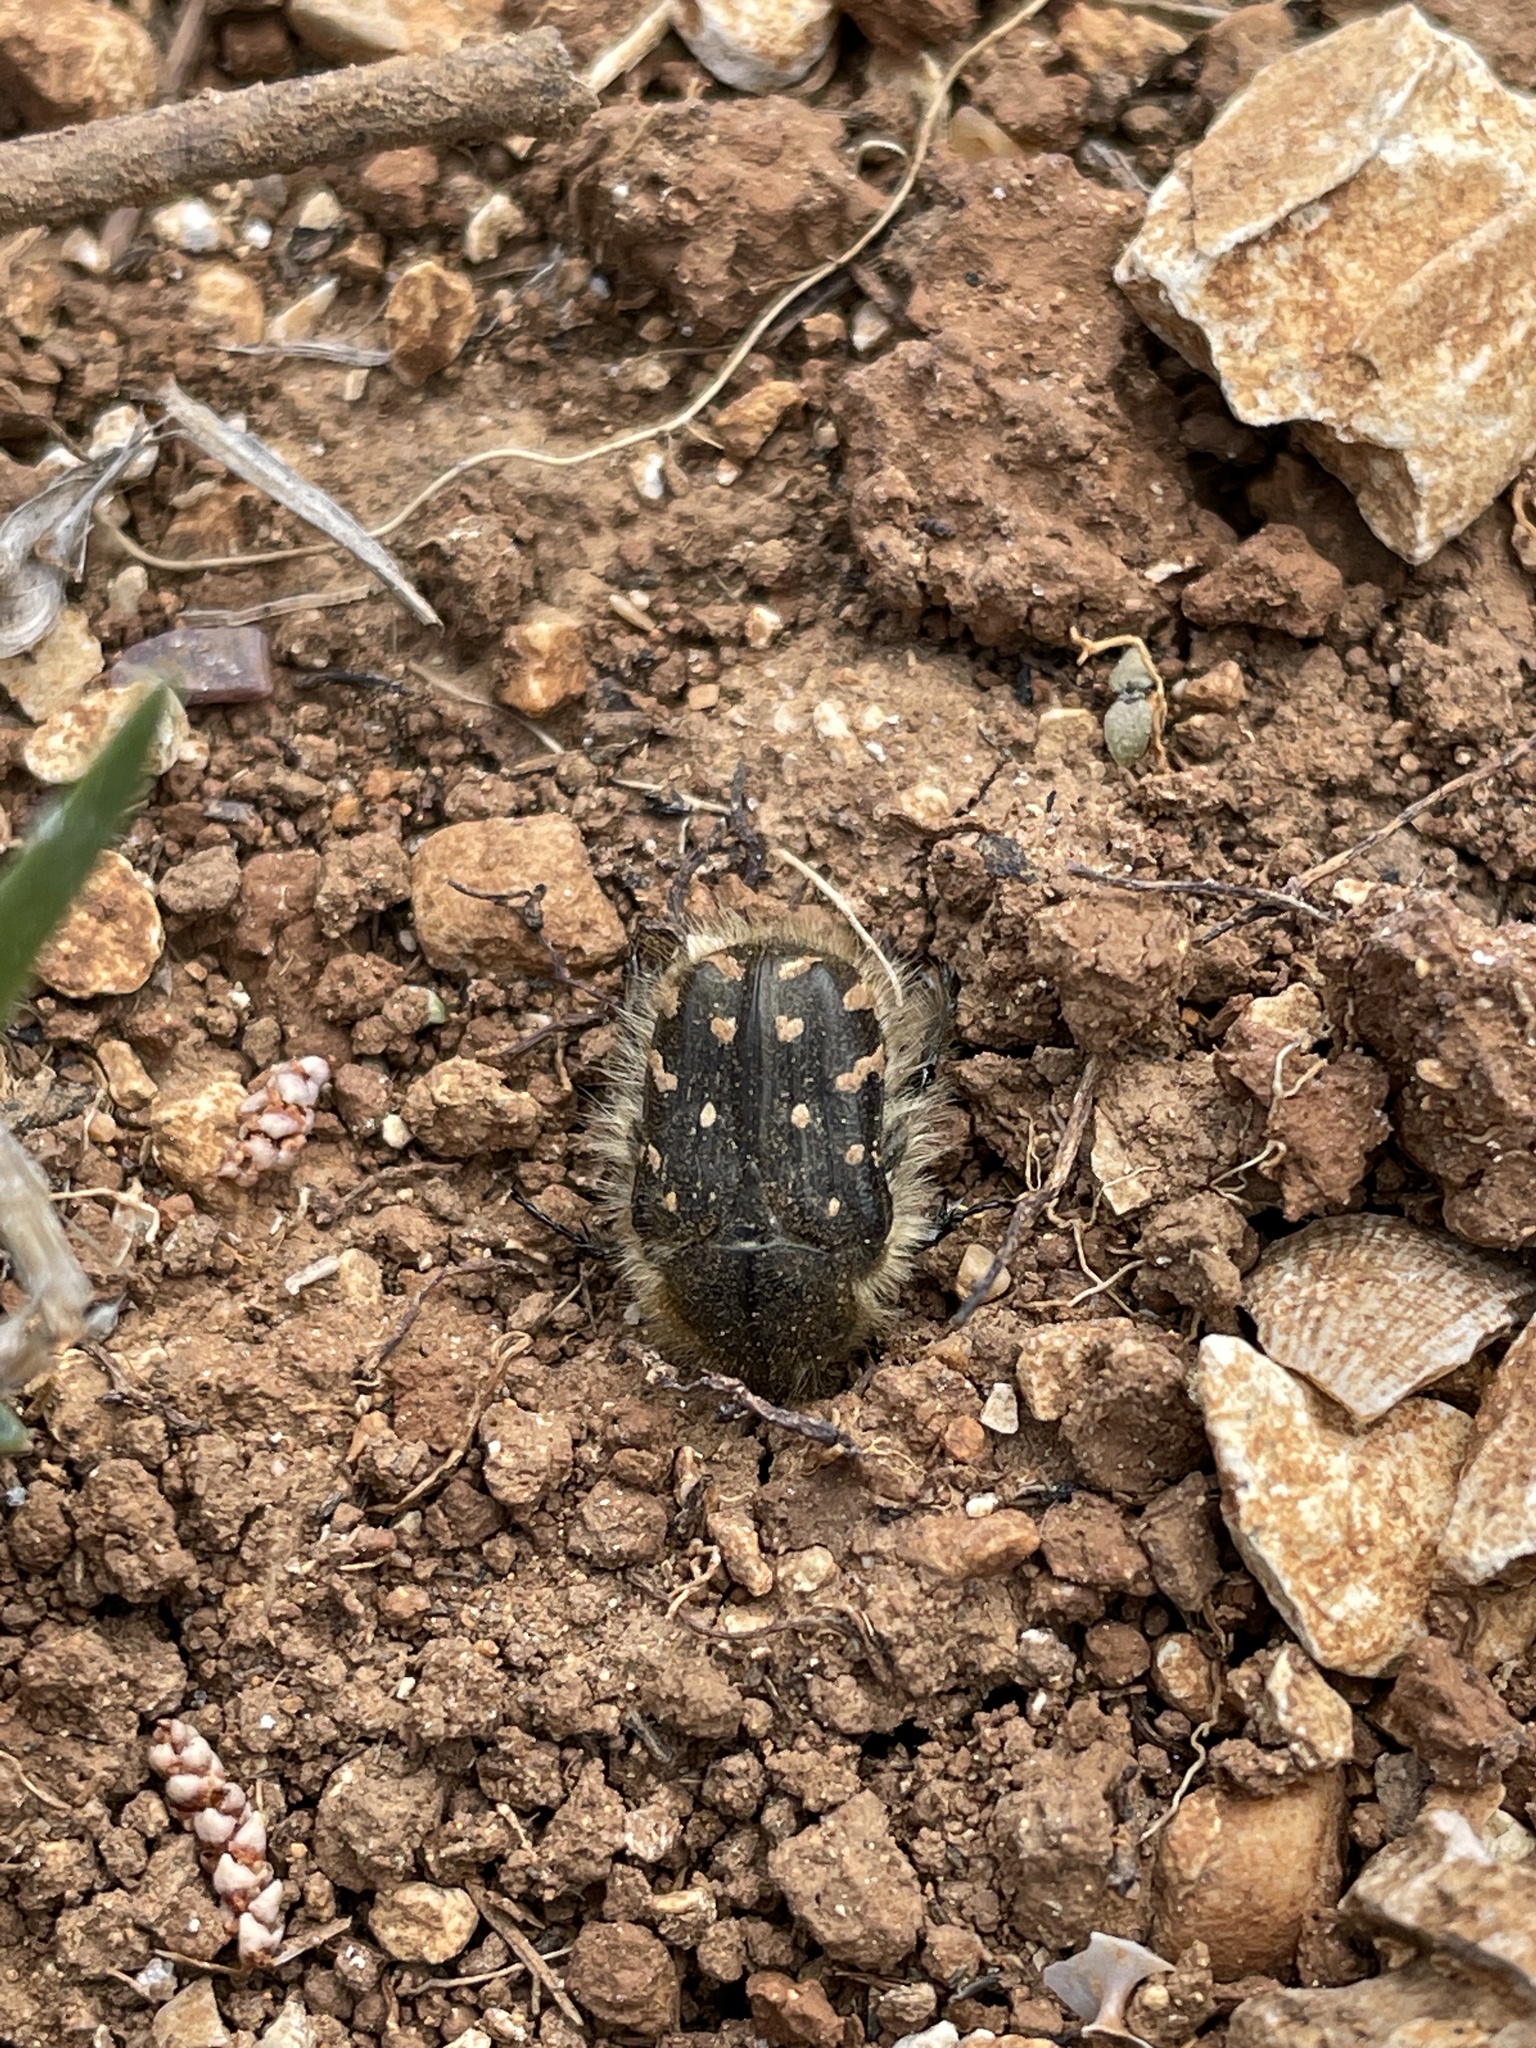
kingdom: Animalia
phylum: Arthropoda
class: Insecta
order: Coleoptera
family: Scarabaeidae
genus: Tropinota
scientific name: Tropinota hirta
